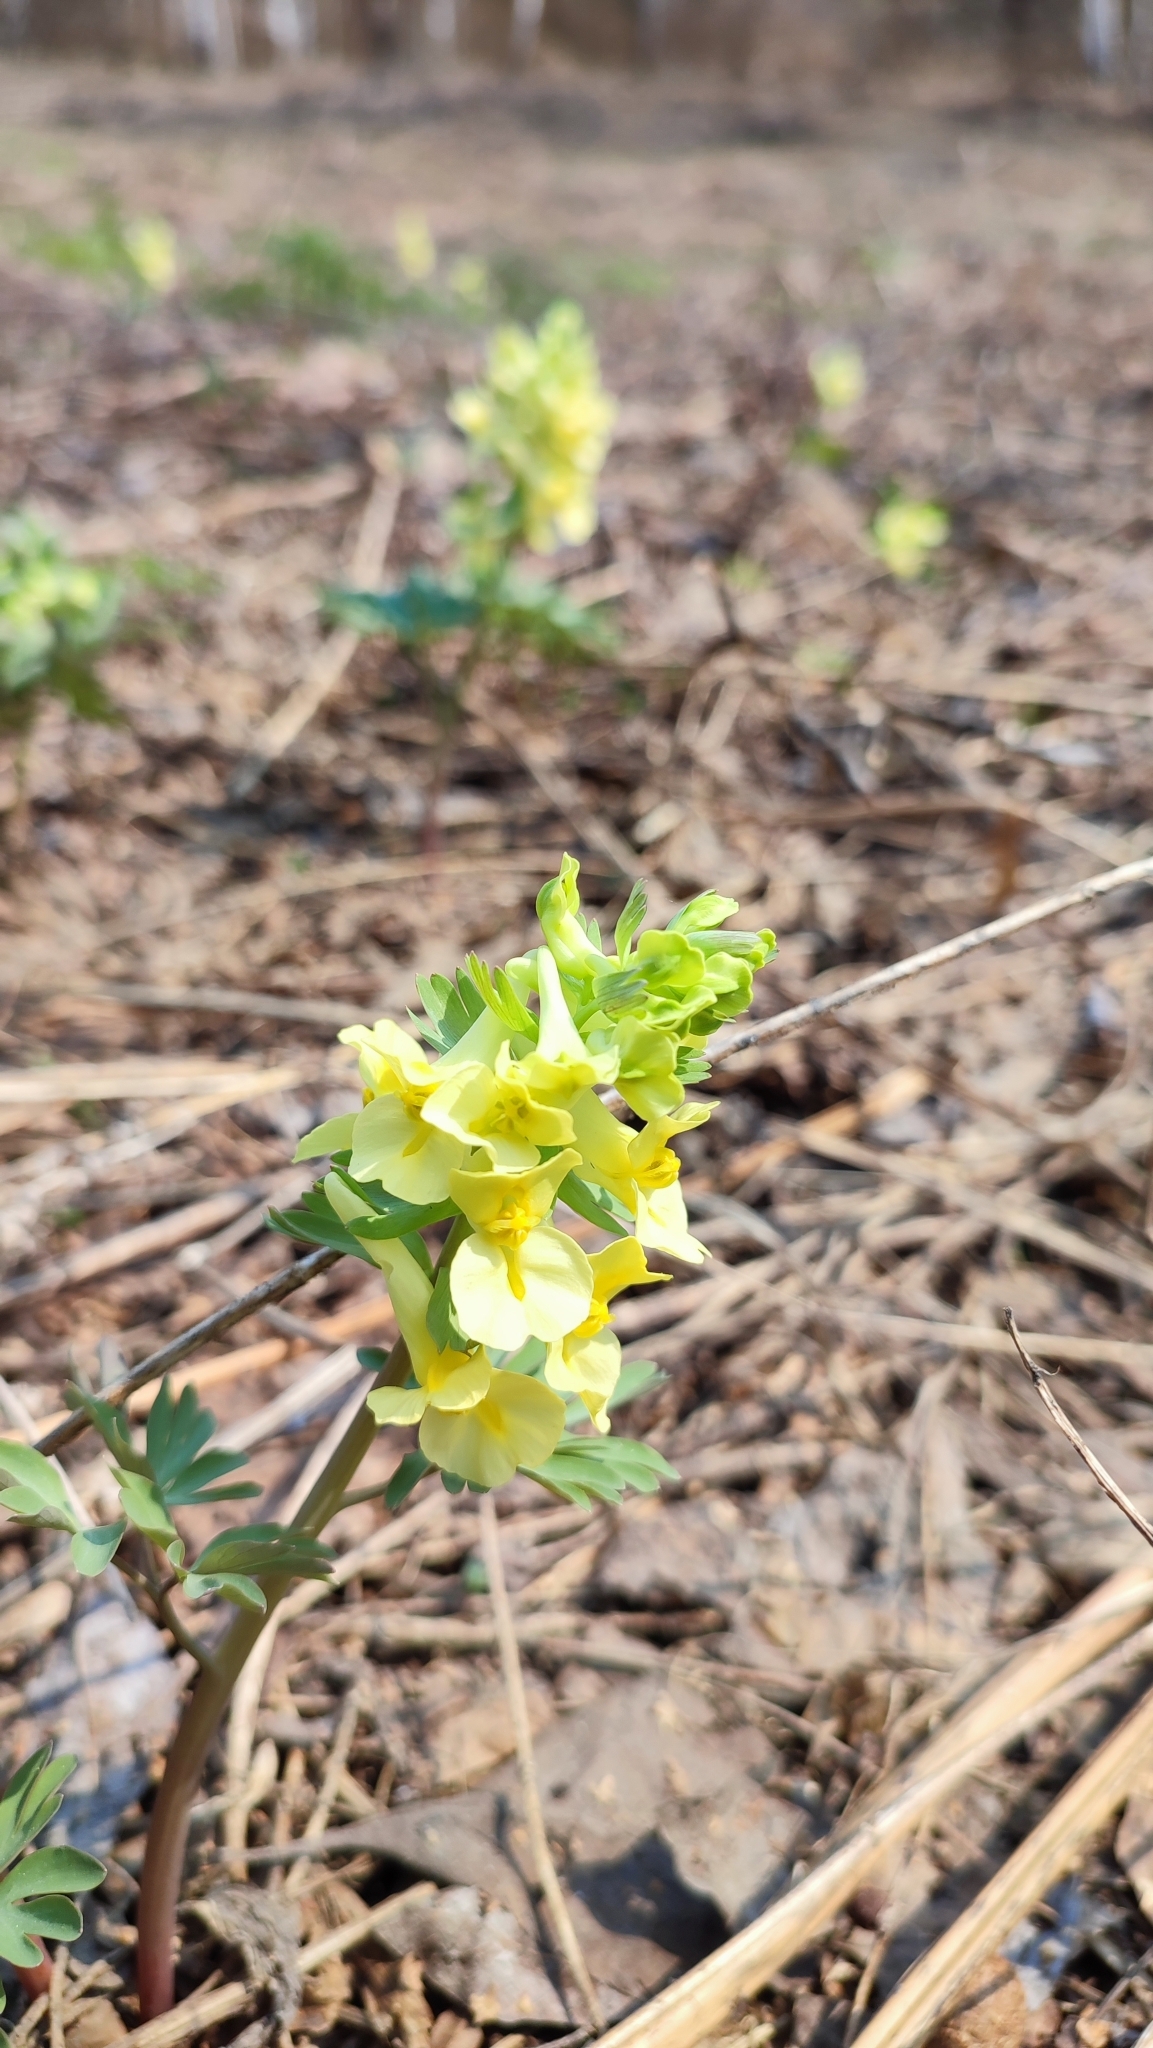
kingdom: Plantae
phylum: Tracheophyta
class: Magnoliopsida
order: Ranunculales
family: Papaveraceae
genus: Corydalis
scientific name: Corydalis bracteata
